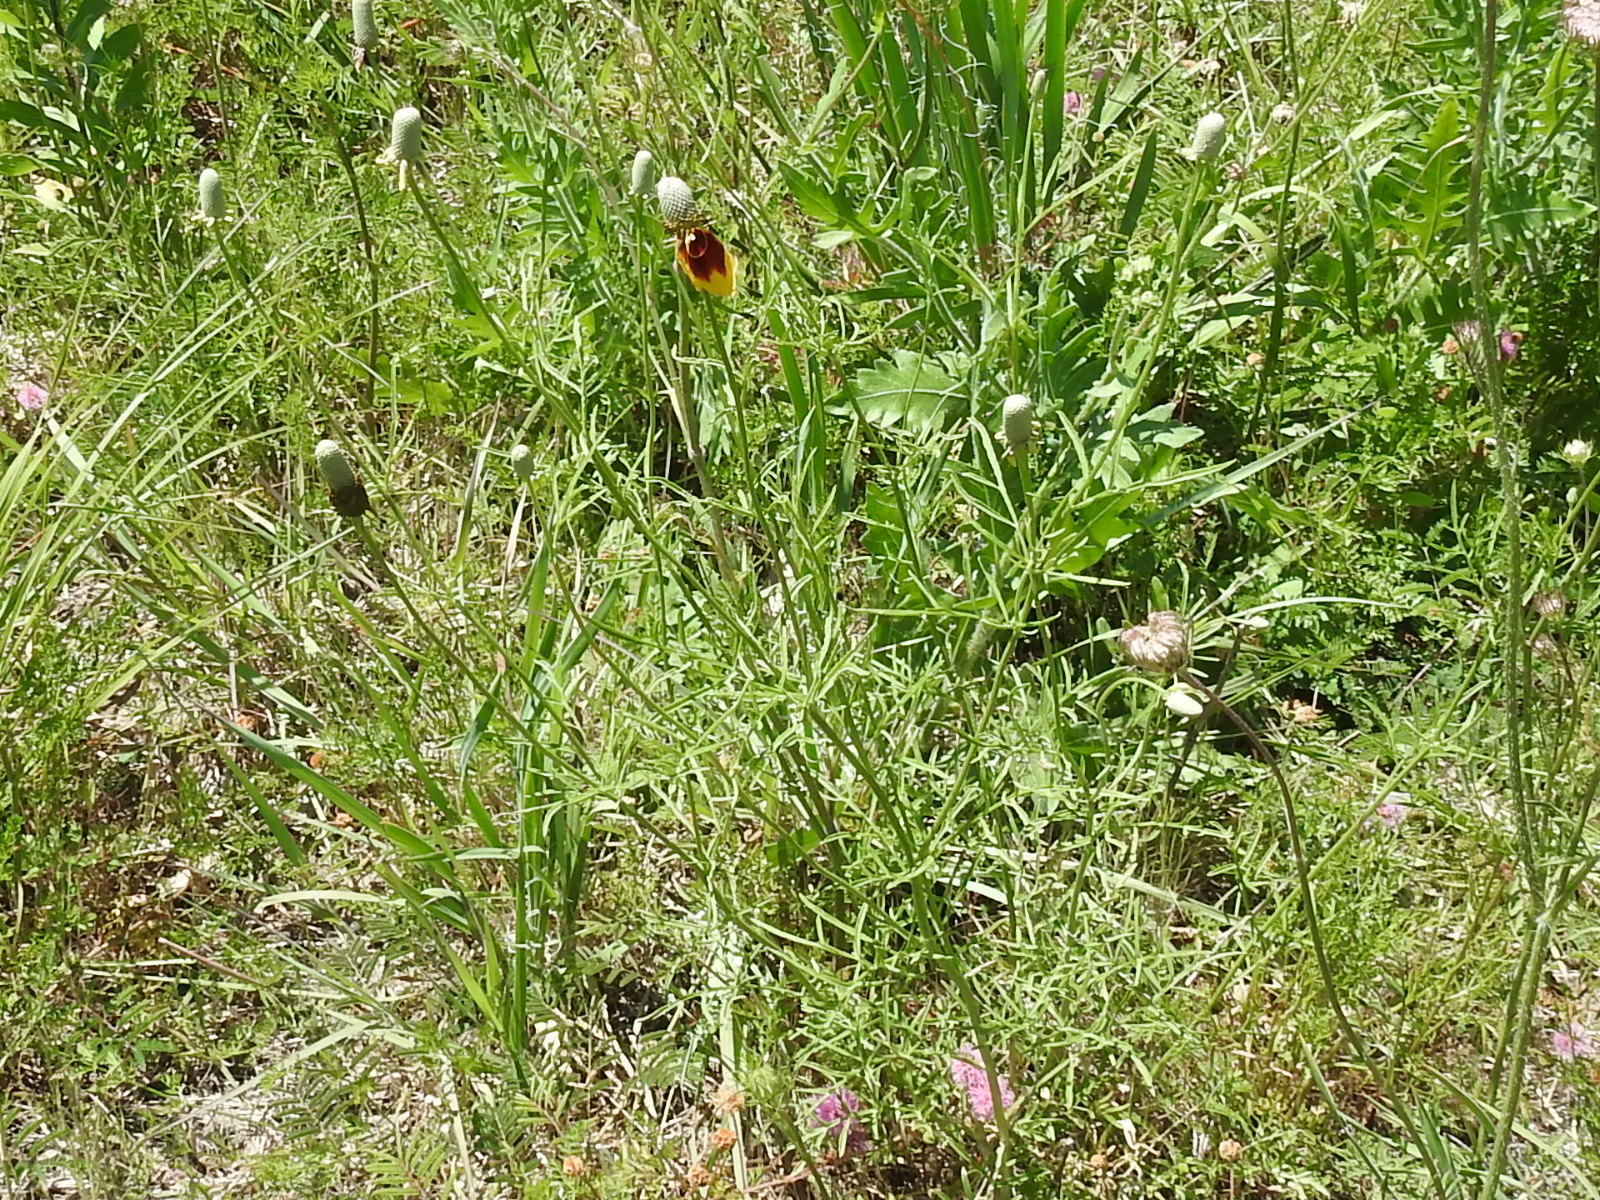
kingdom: Plantae
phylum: Tracheophyta
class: Magnoliopsida
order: Asterales
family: Asteraceae
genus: Ratibida
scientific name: Ratibida columnifera
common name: Prairie coneflower
